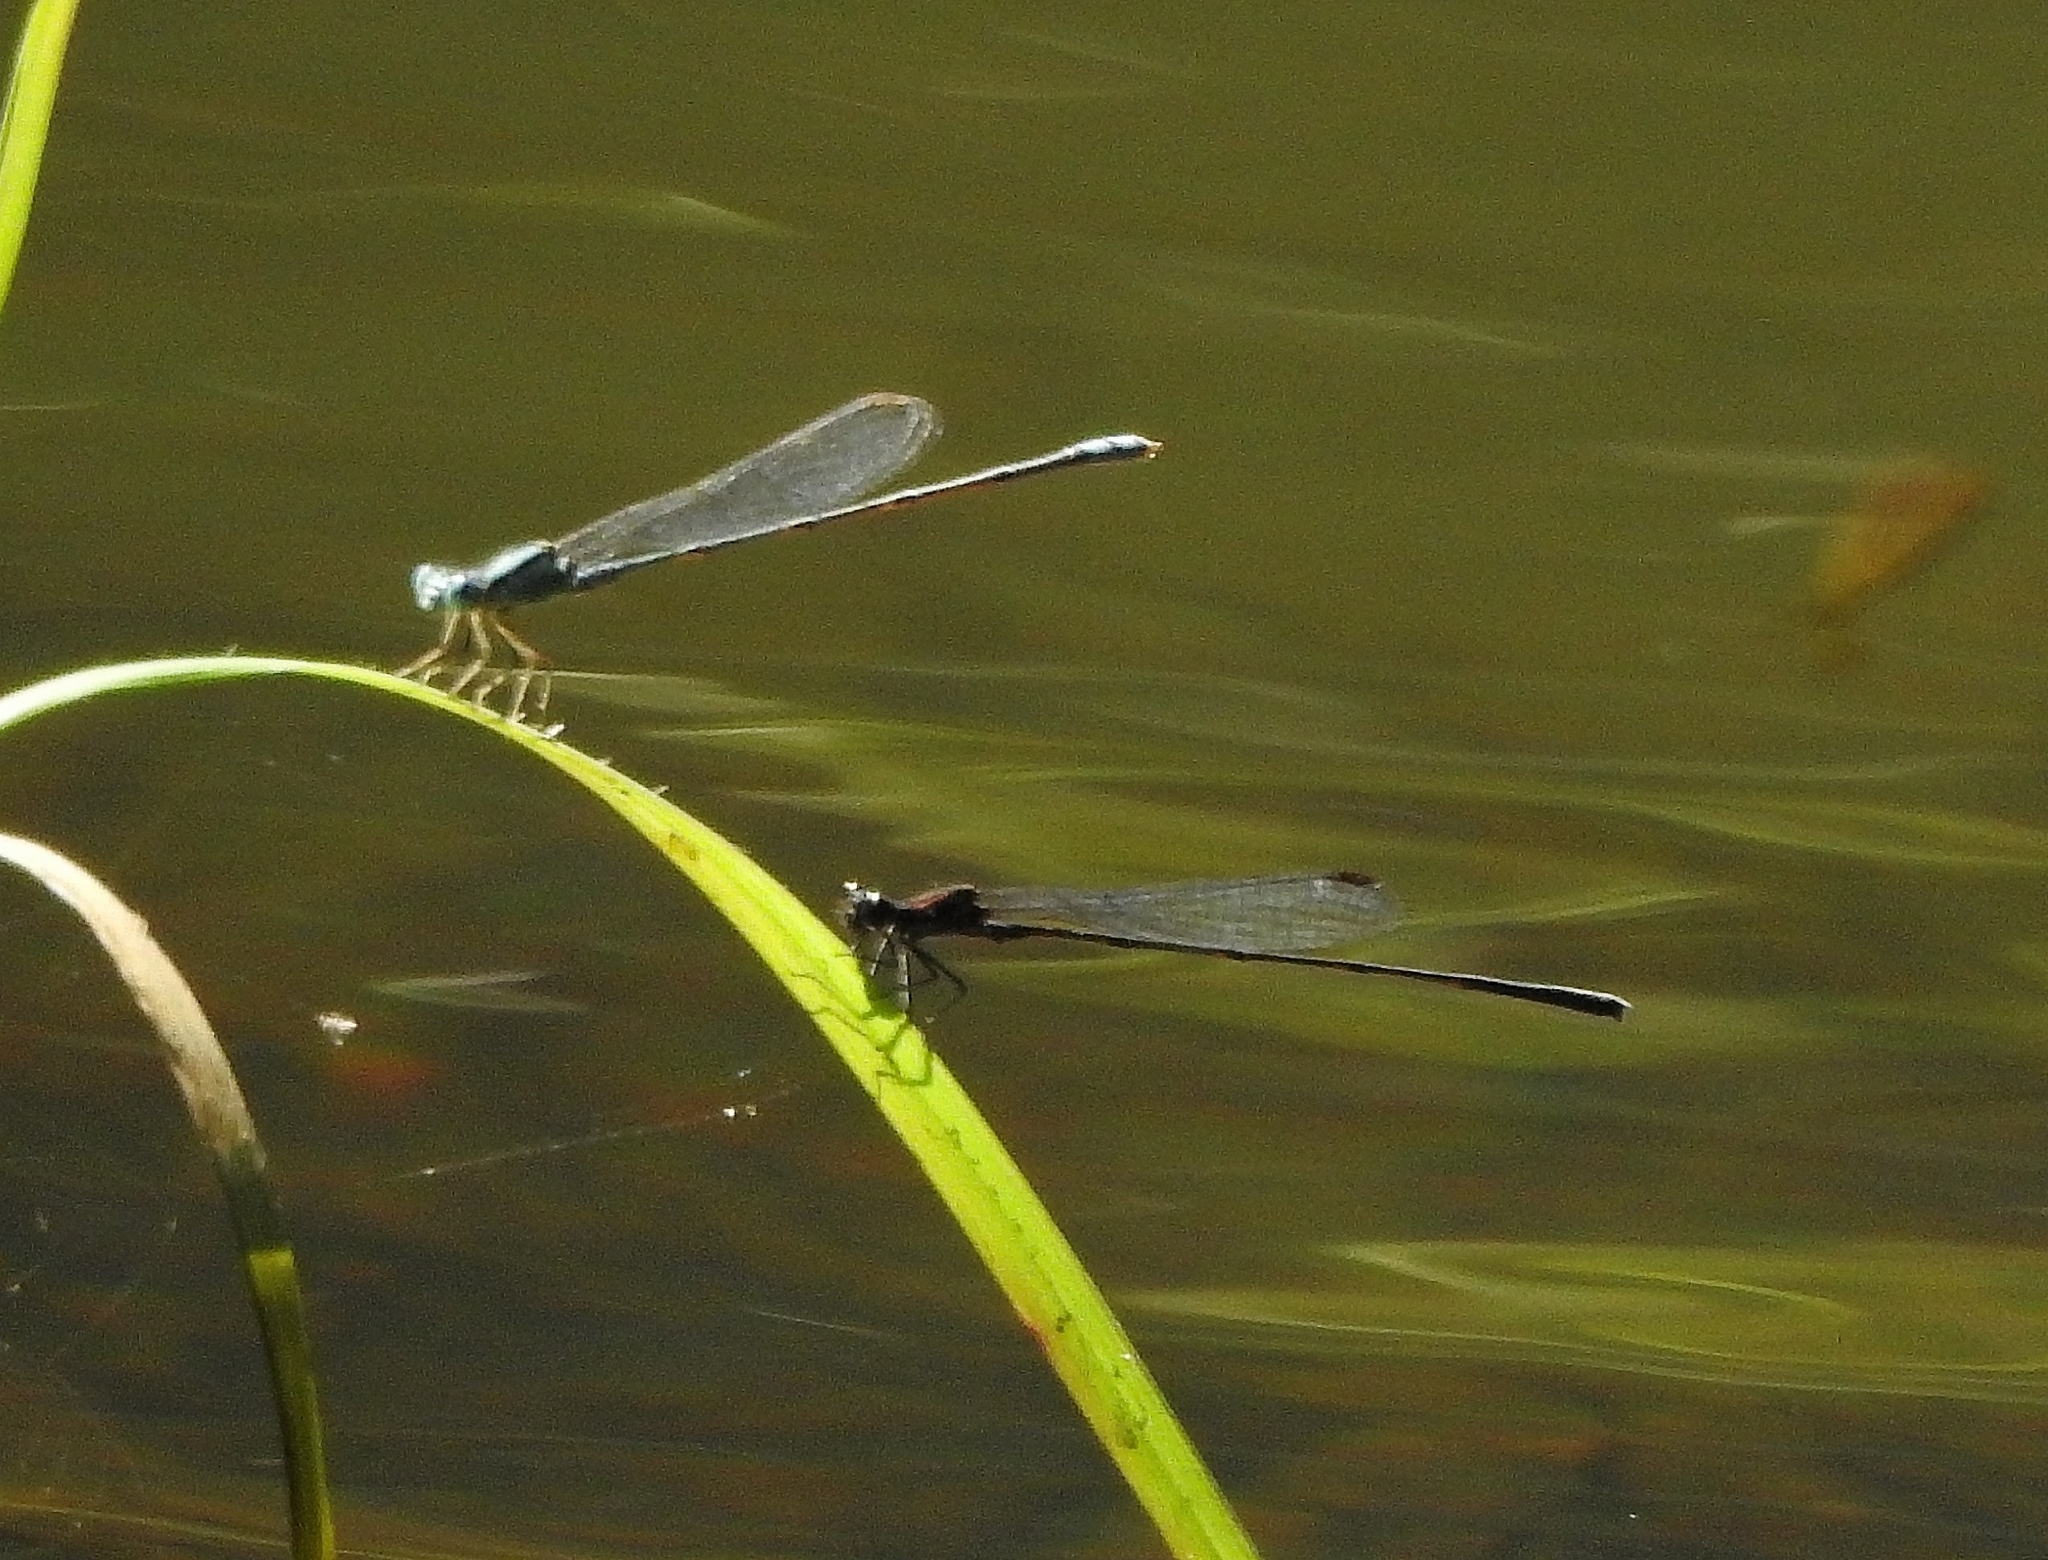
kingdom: Animalia
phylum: Arthropoda
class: Insecta
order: Odonata
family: Platycnemididae
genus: Prodasineura
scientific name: Prodasineura verticalis
